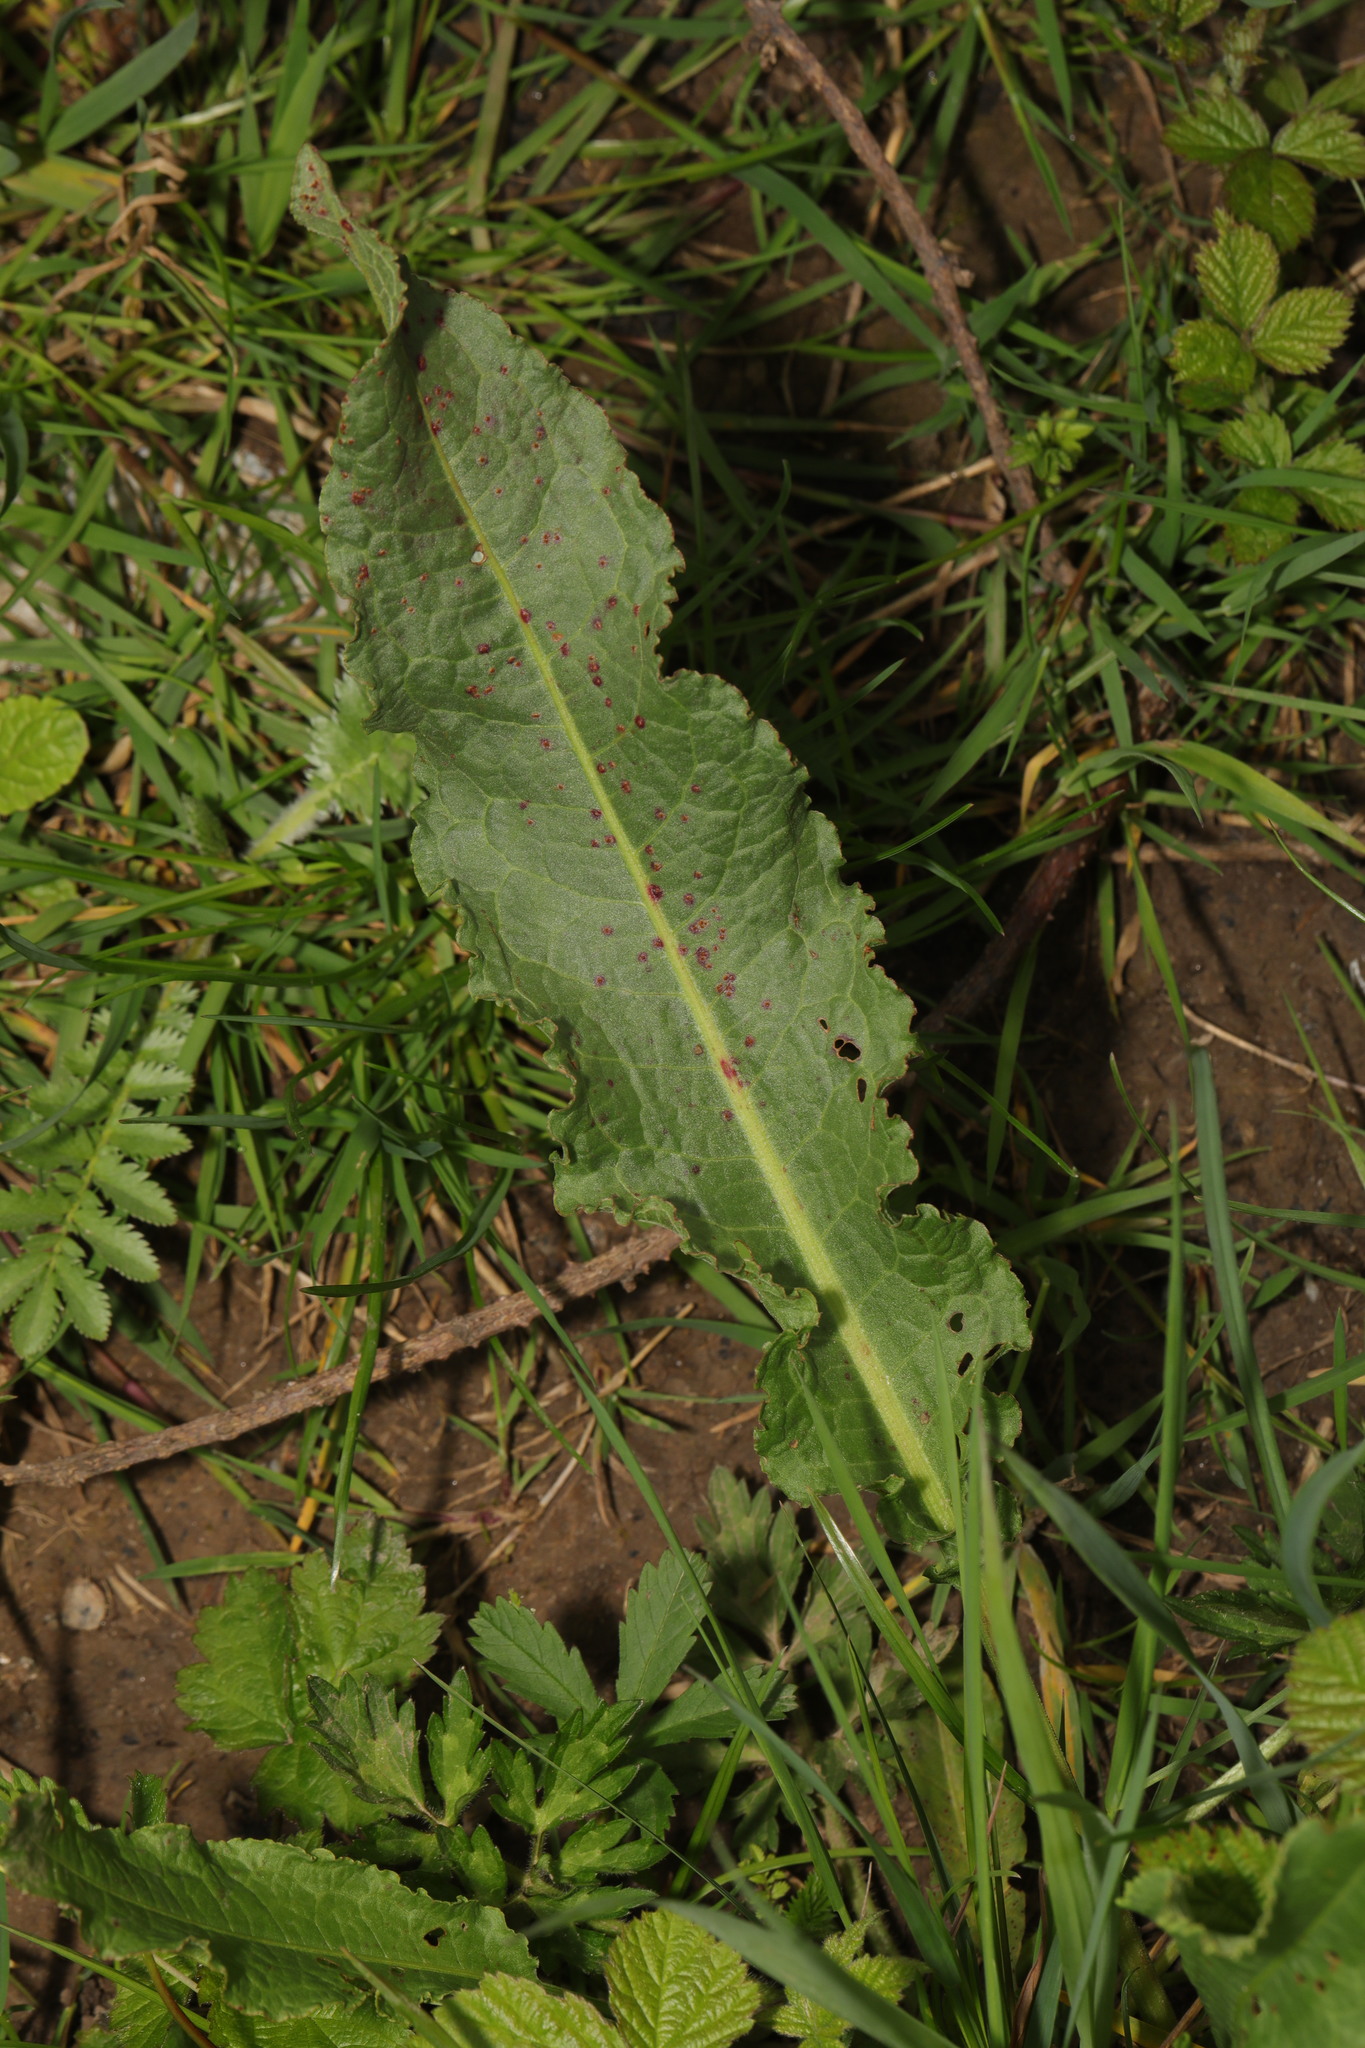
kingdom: Plantae
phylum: Tracheophyta
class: Magnoliopsida
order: Caryophyllales
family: Polygonaceae
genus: Rumex
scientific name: Rumex crispus
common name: Curled dock
